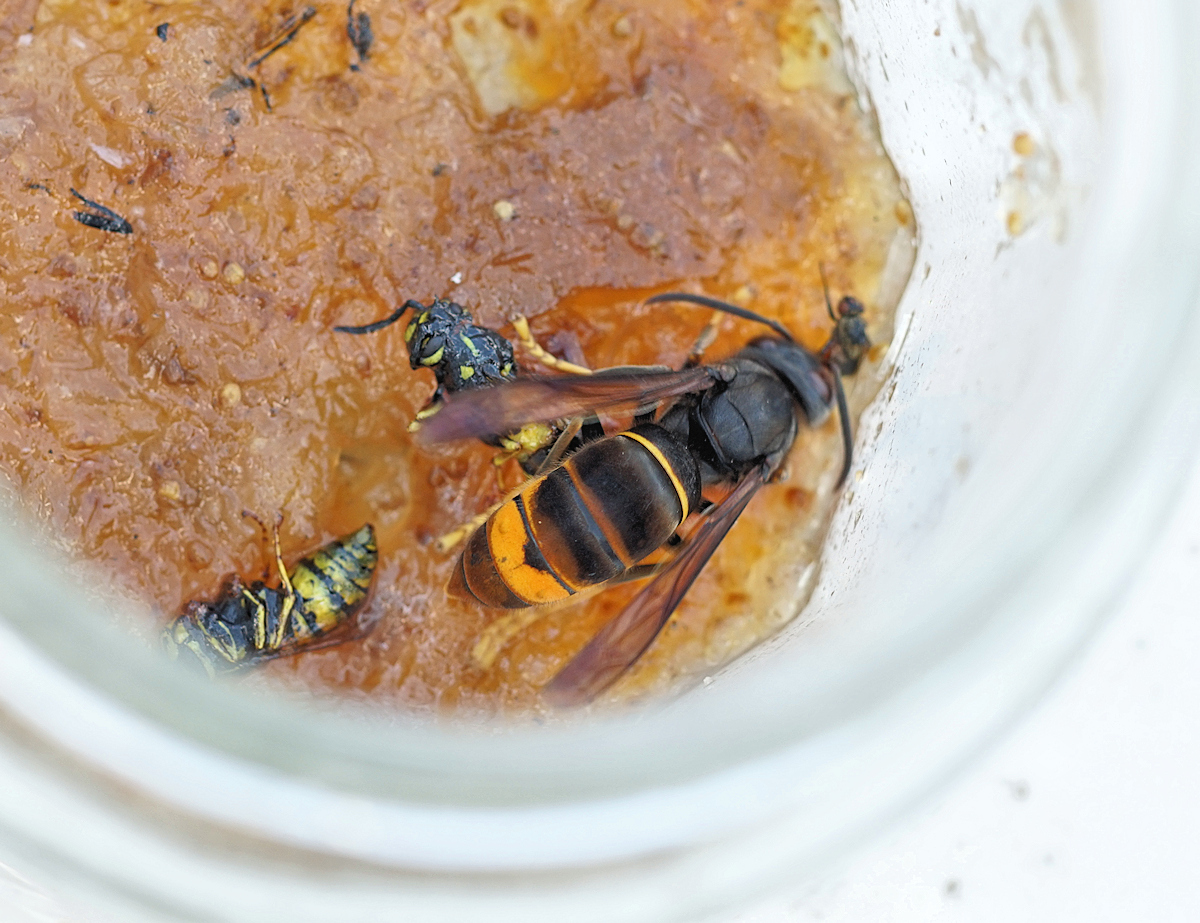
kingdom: Animalia
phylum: Arthropoda
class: Insecta
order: Hymenoptera
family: Vespidae
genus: Vespa
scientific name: Vespa velutina
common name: Asian hornet
